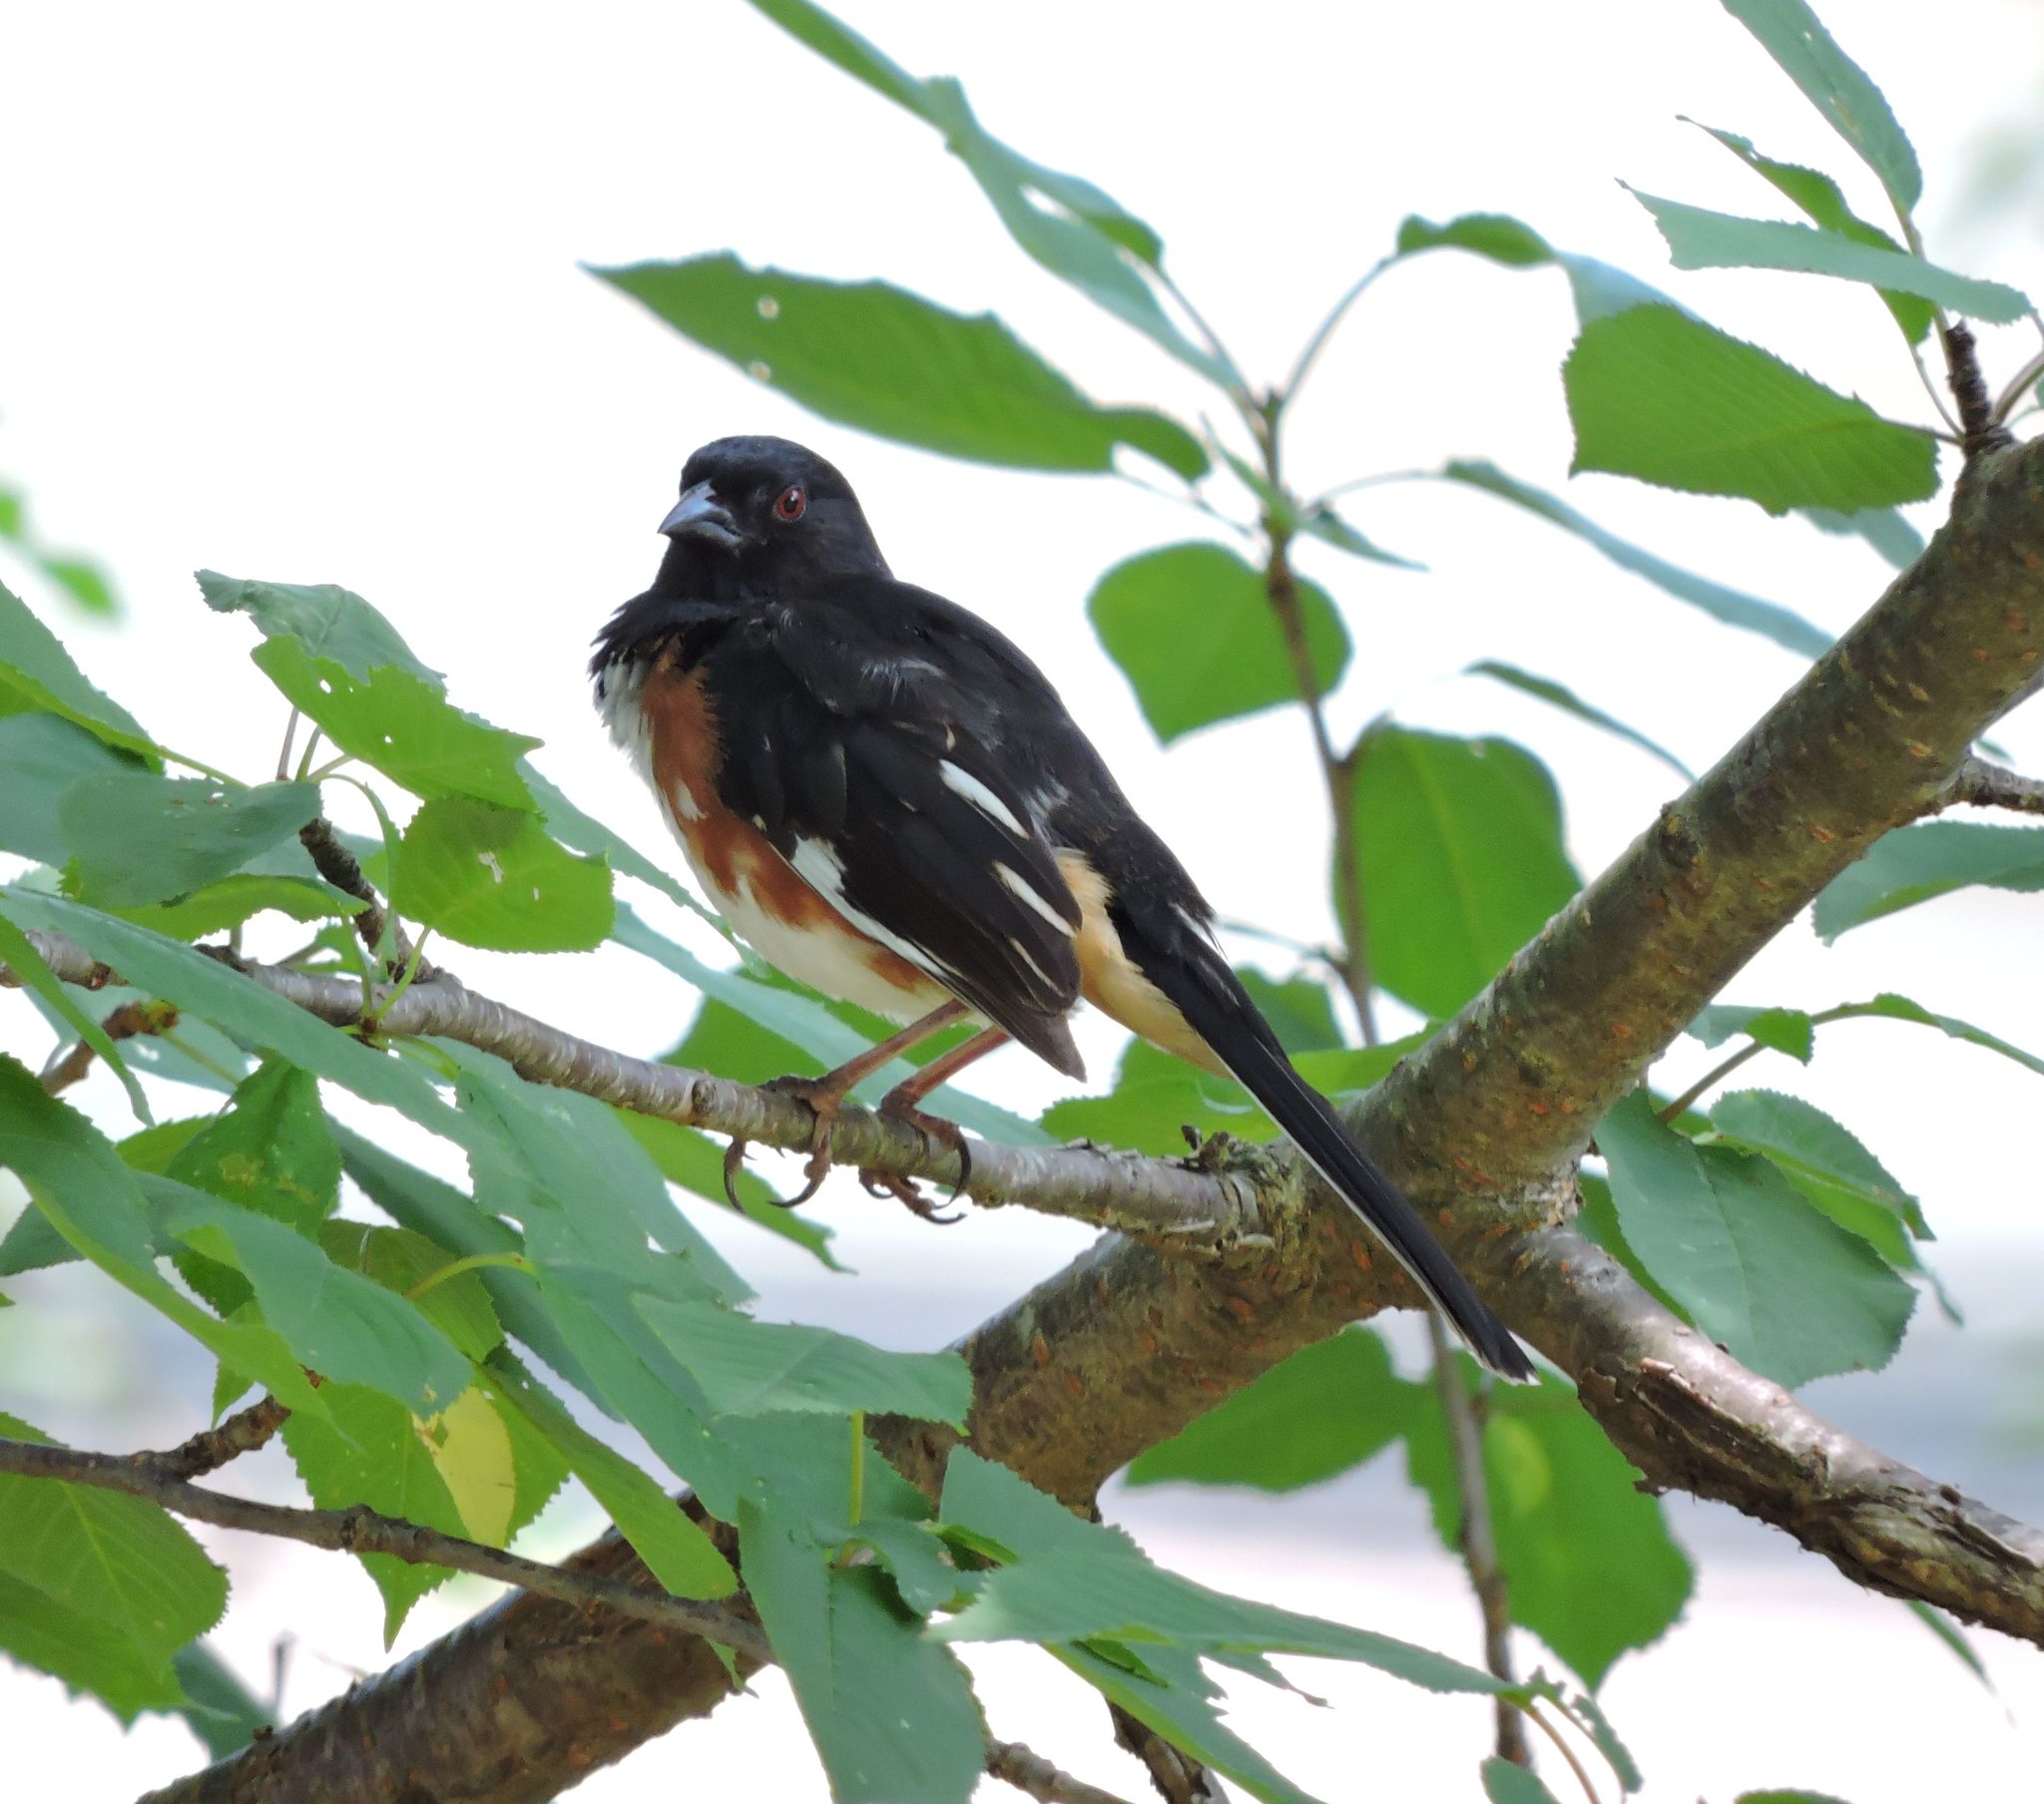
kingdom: Animalia
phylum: Chordata
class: Aves
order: Passeriformes
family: Passerellidae
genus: Pipilo
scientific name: Pipilo erythrophthalmus
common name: Eastern towhee
